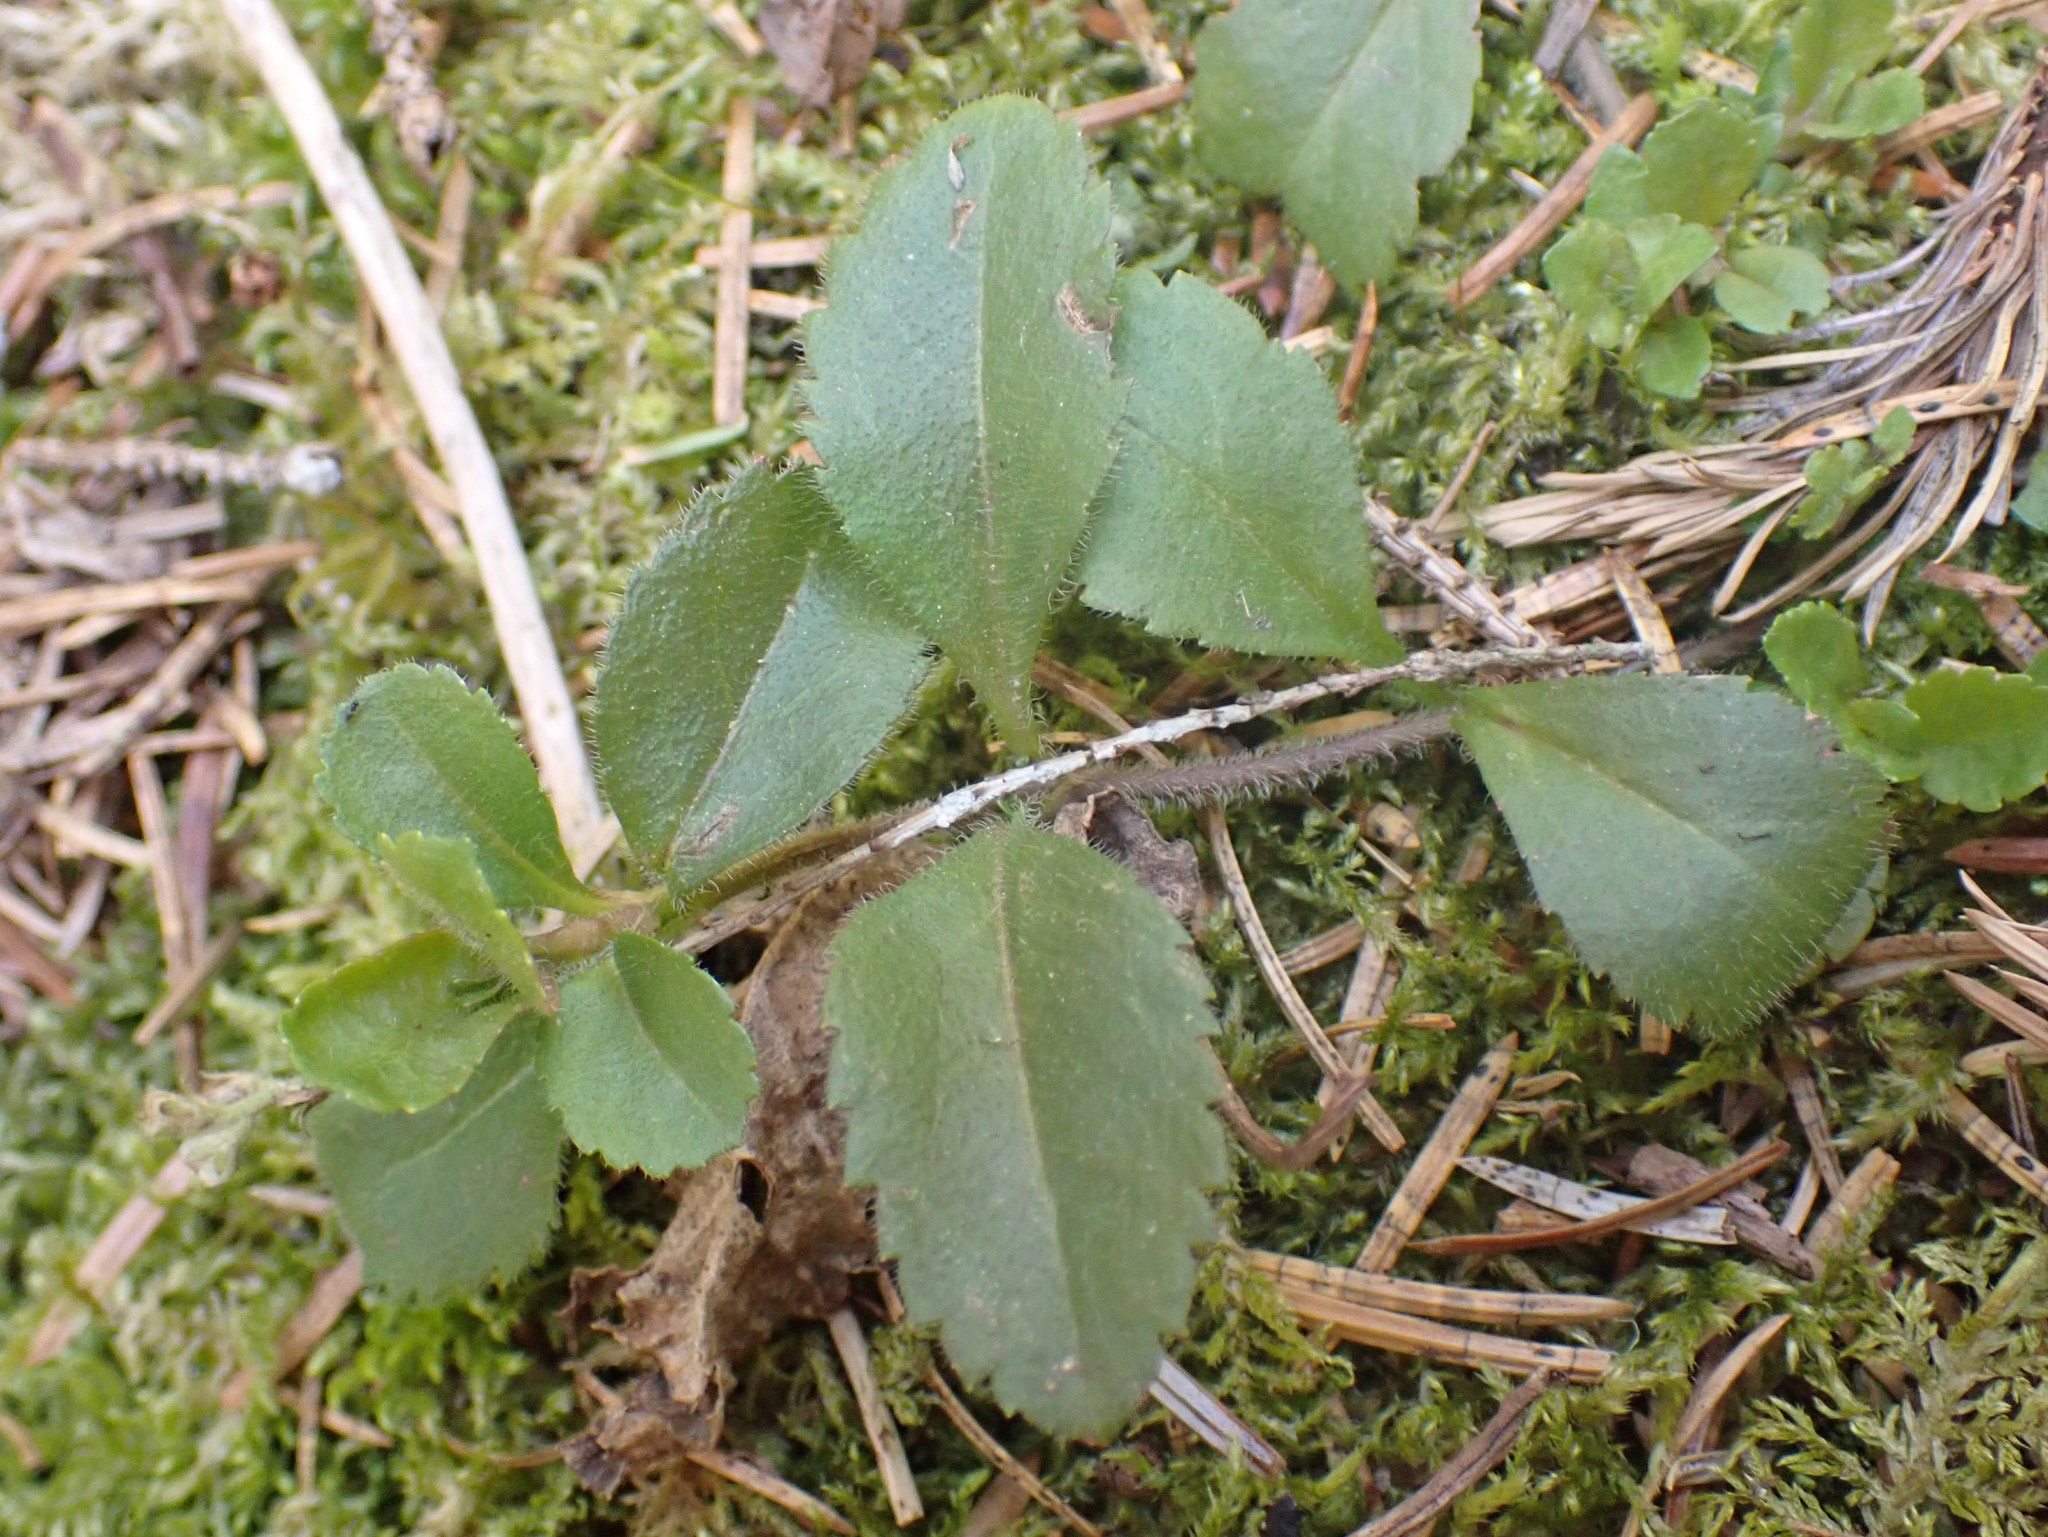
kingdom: Plantae
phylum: Tracheophyta
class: Magnoliopsida
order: Lamiales
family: Plantaginaceae
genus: Veronica
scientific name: Veronica officinalis
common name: Common speedwell
